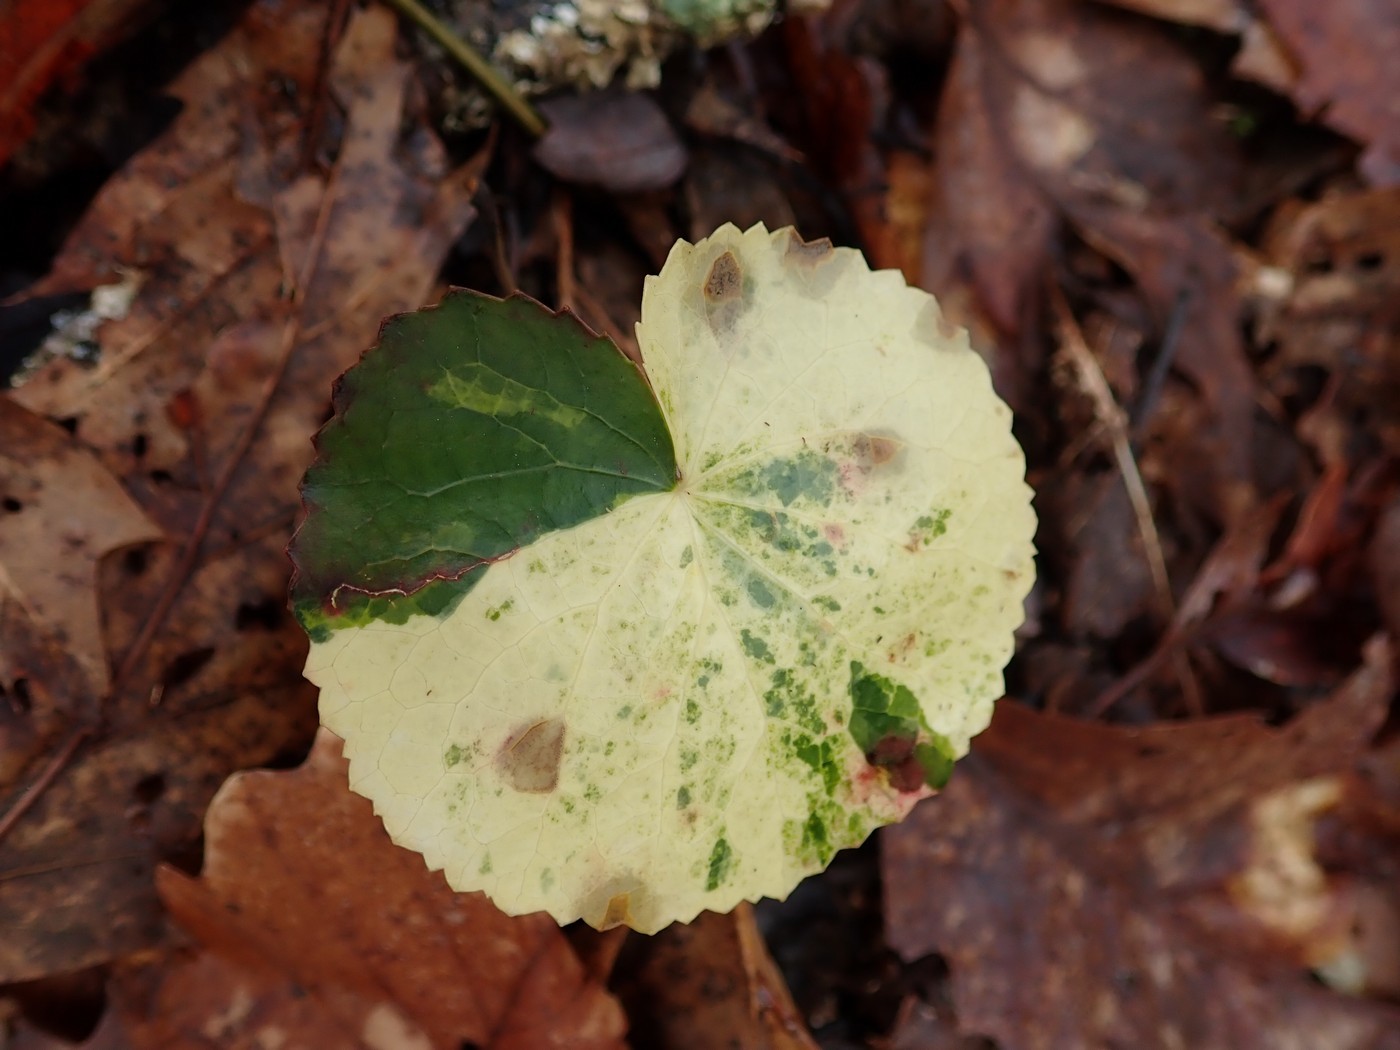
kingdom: Plantae
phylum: Tracheophyta
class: Magnoliopsida
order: Ericales
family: Diapensiaceae
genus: Galax
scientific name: Galax urceolata
